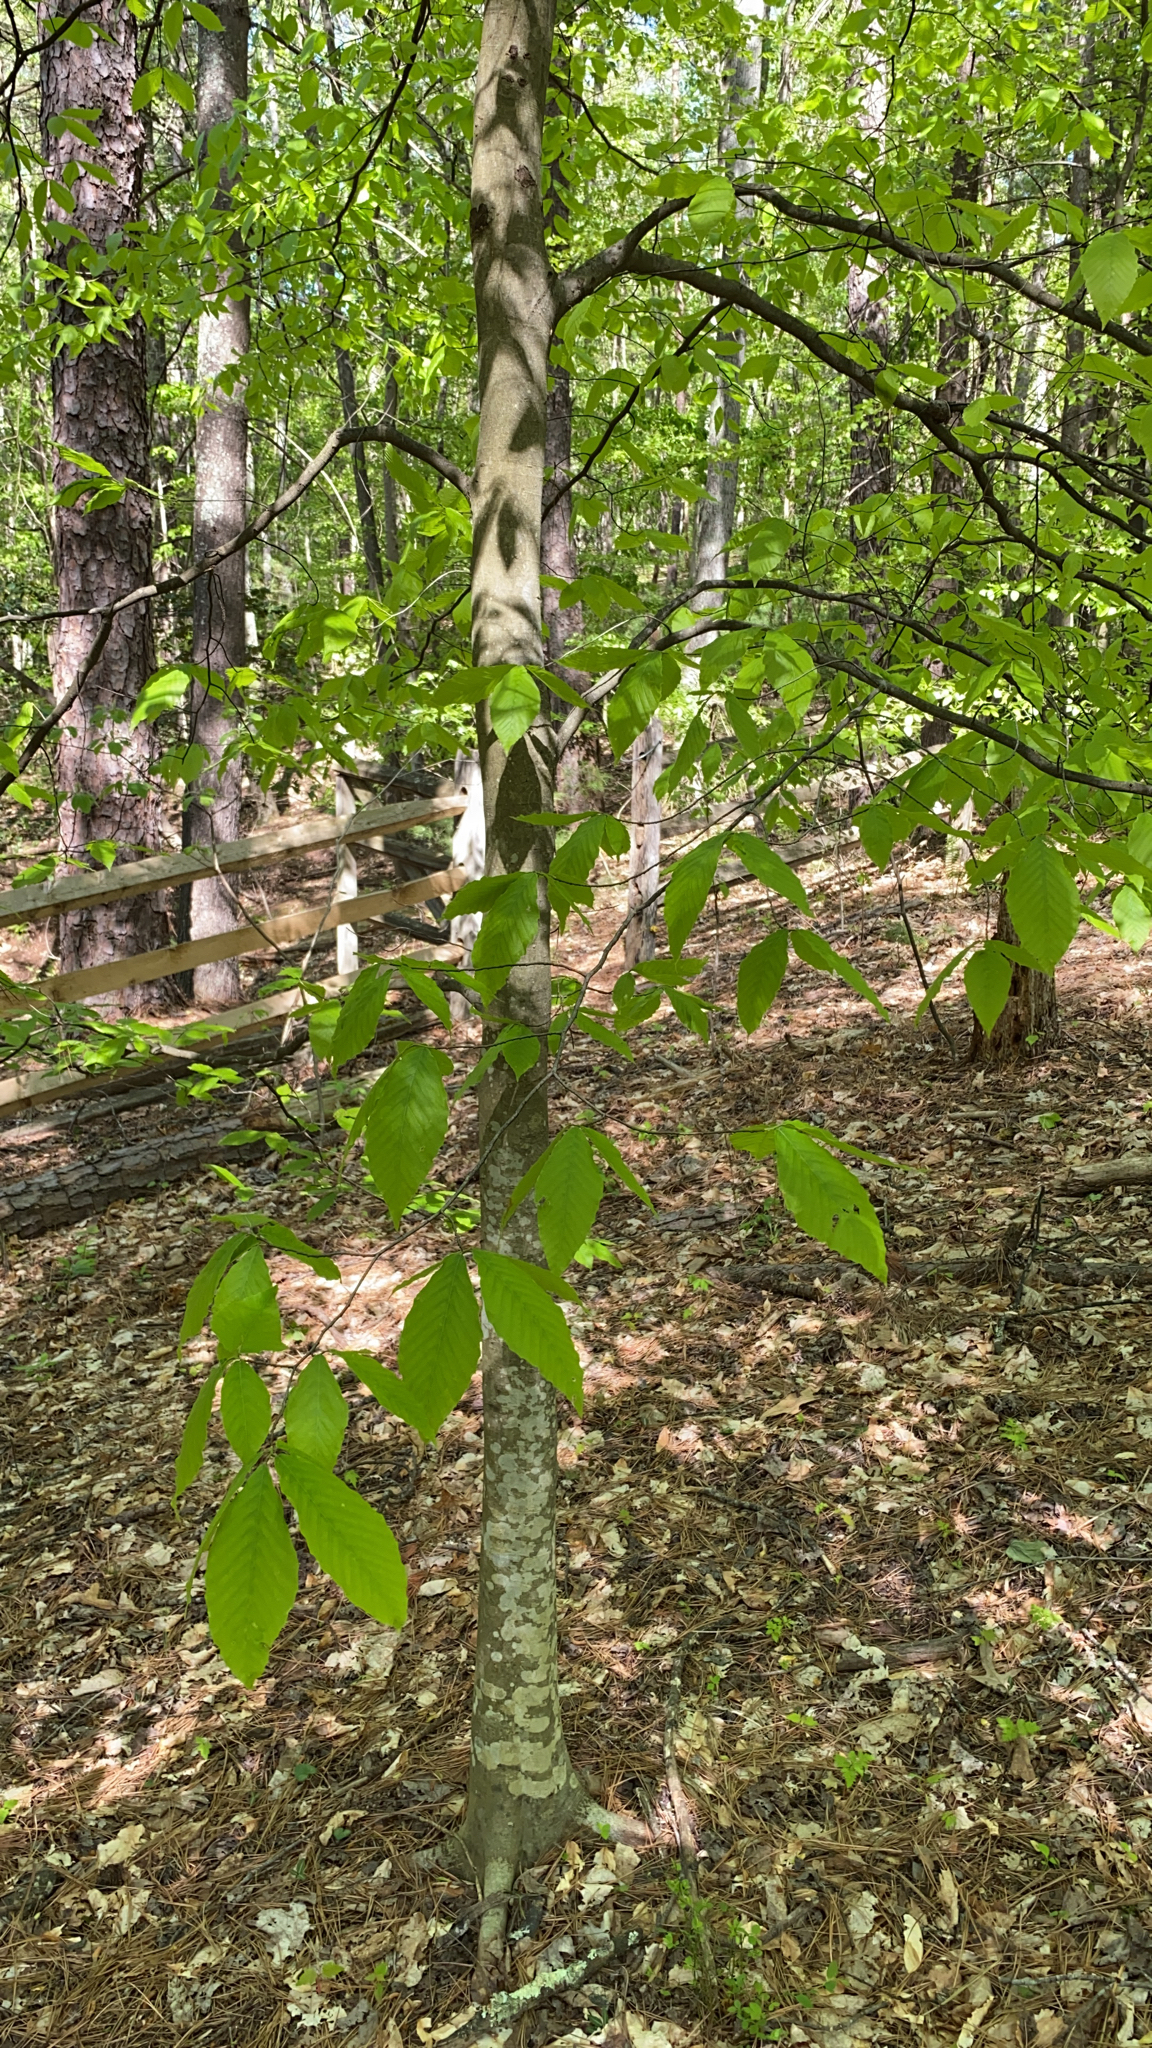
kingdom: Plantae
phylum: Tracheophyta
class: Magnoliopsida
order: Fagales
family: Fagaceae
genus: Fagus
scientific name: Fagus grandifolia
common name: American beech
